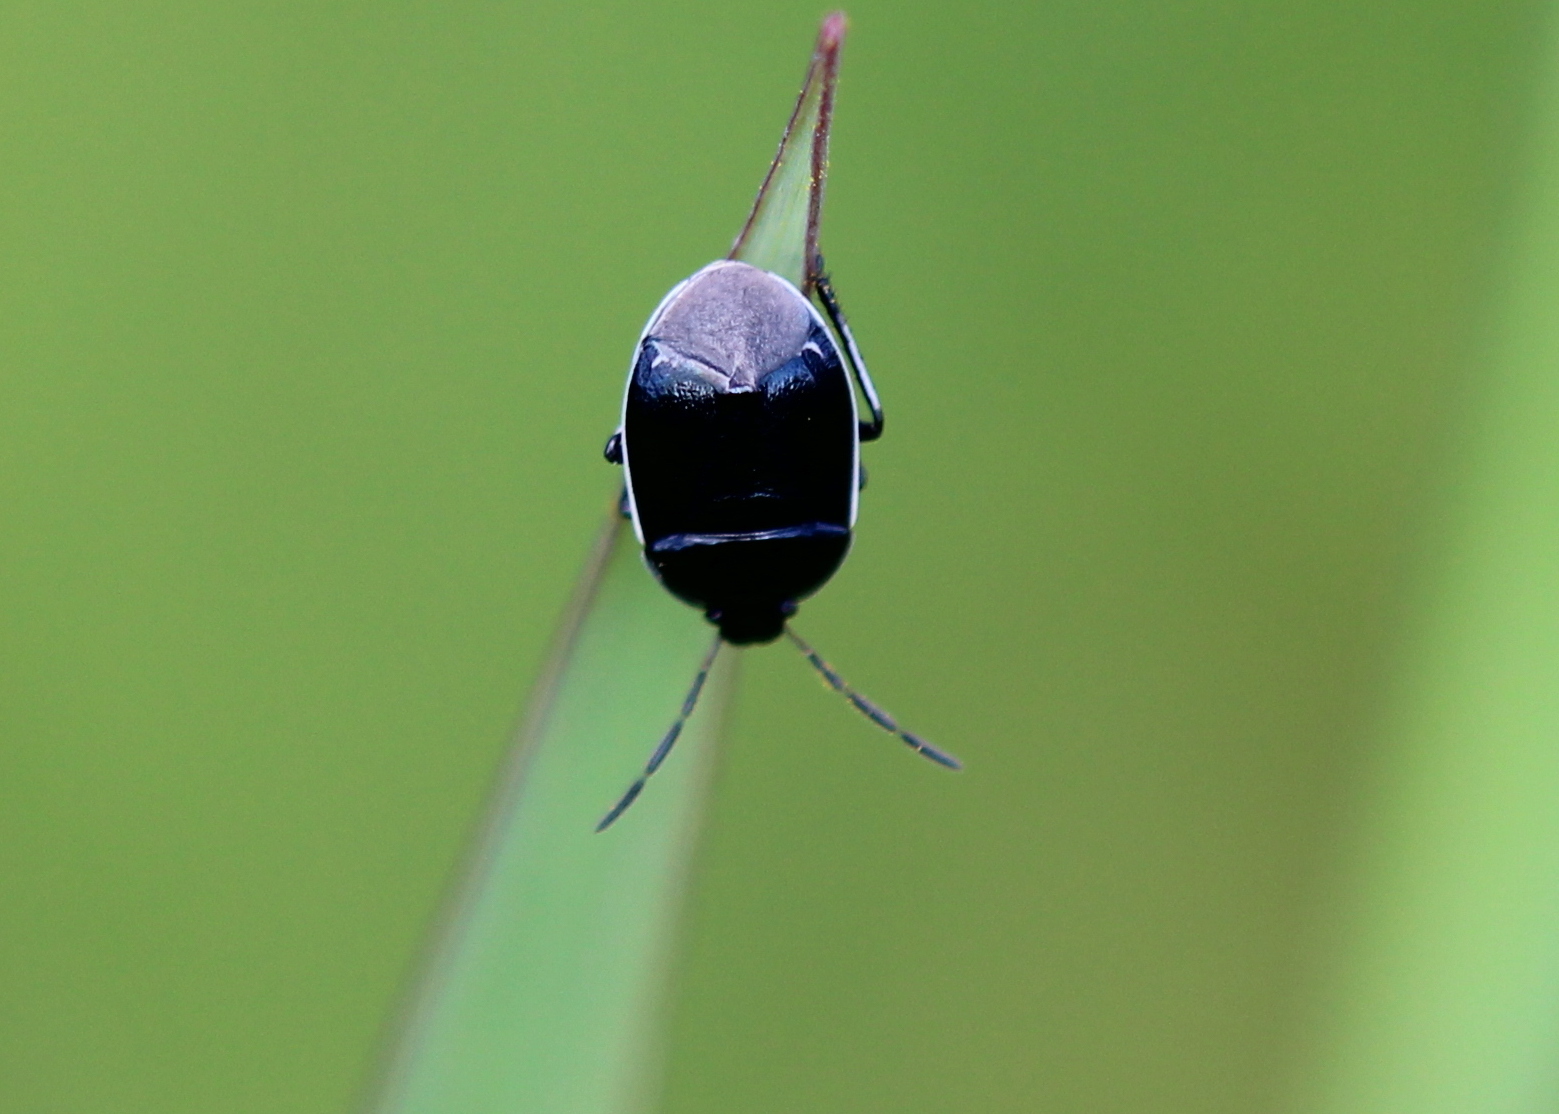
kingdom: Animalia
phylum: Arthropoda
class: Insecta
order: Hemiptera
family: Cydnidae
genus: Sehirus
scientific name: Sehirus cinctus
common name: White-margined burrower bug
